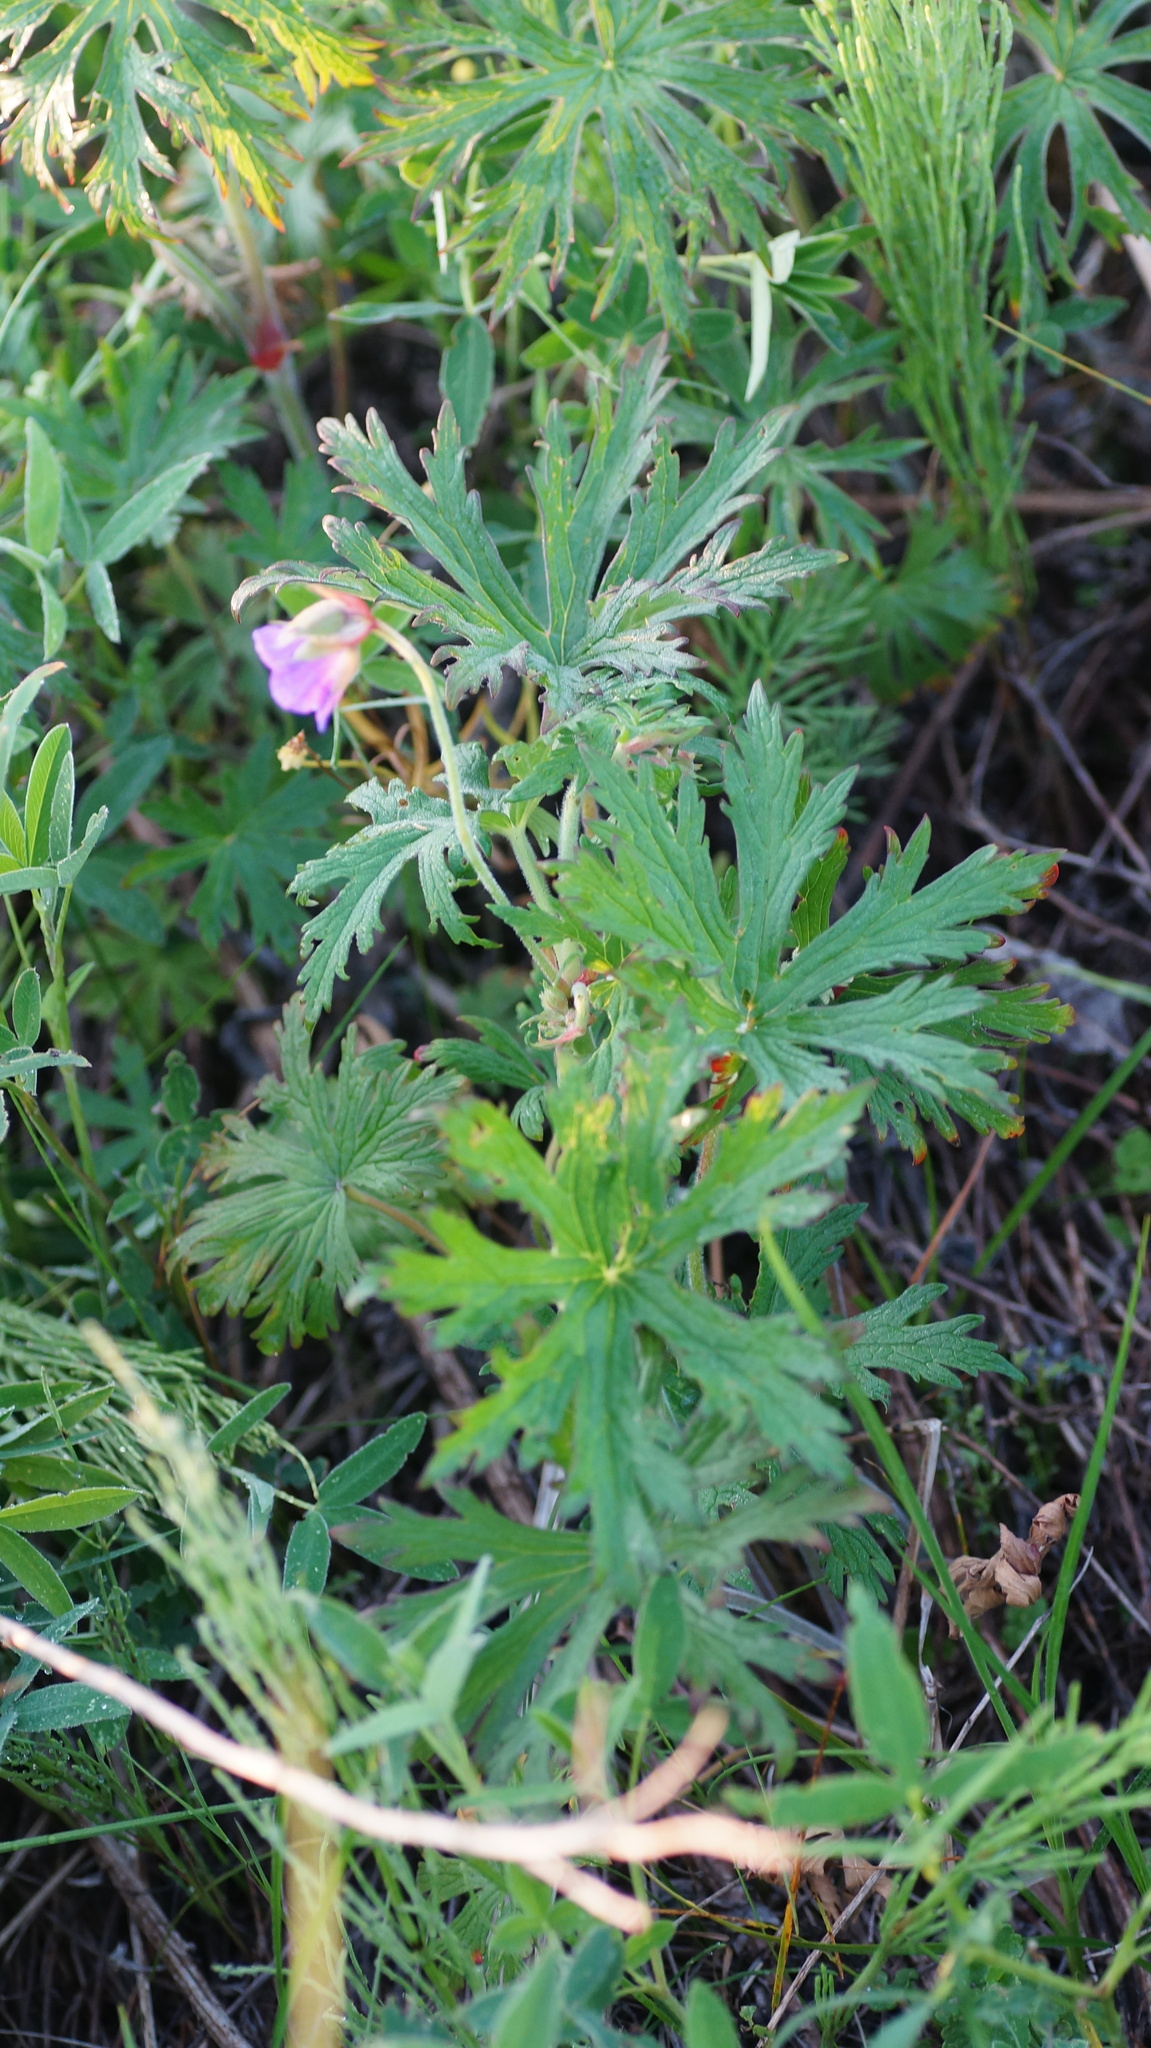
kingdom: Plantae
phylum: Tracheophyta
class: Magnoliopsida
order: Geraniales
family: Geraniaceae
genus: Geranium
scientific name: Geranium pratense
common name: Meadow crane's-bill
